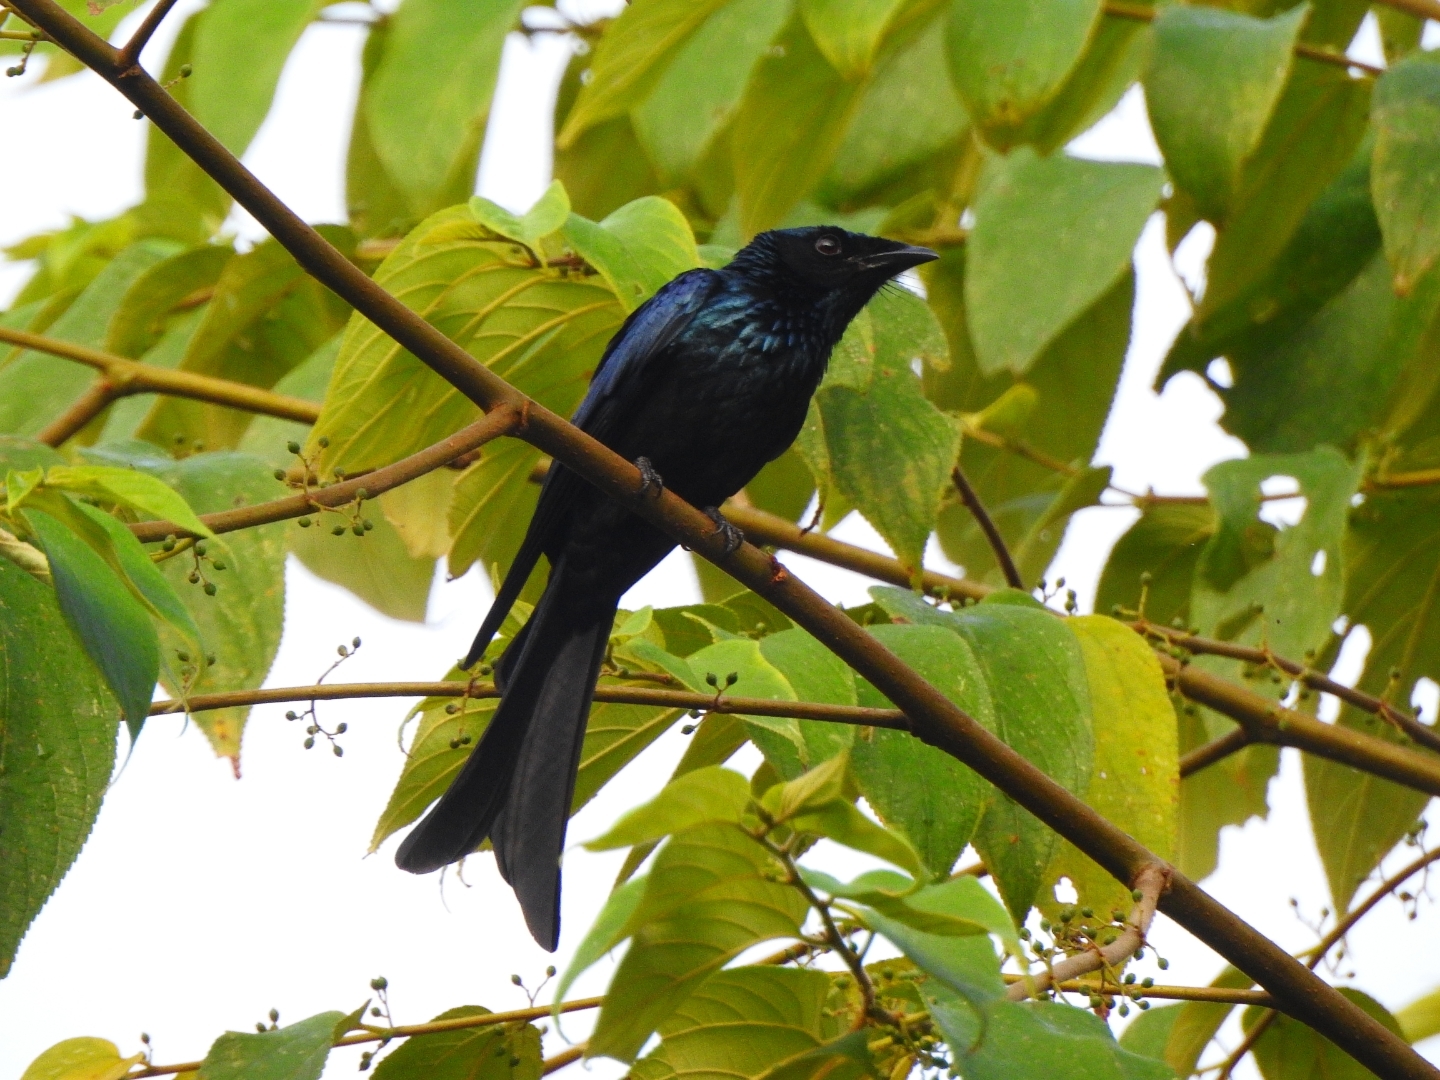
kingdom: Animalia
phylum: Chordata
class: Aves
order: Passeriformes
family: Dicruridae
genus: Dicrurus
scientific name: Dicrurus aeneus
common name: Bronzed drongo
